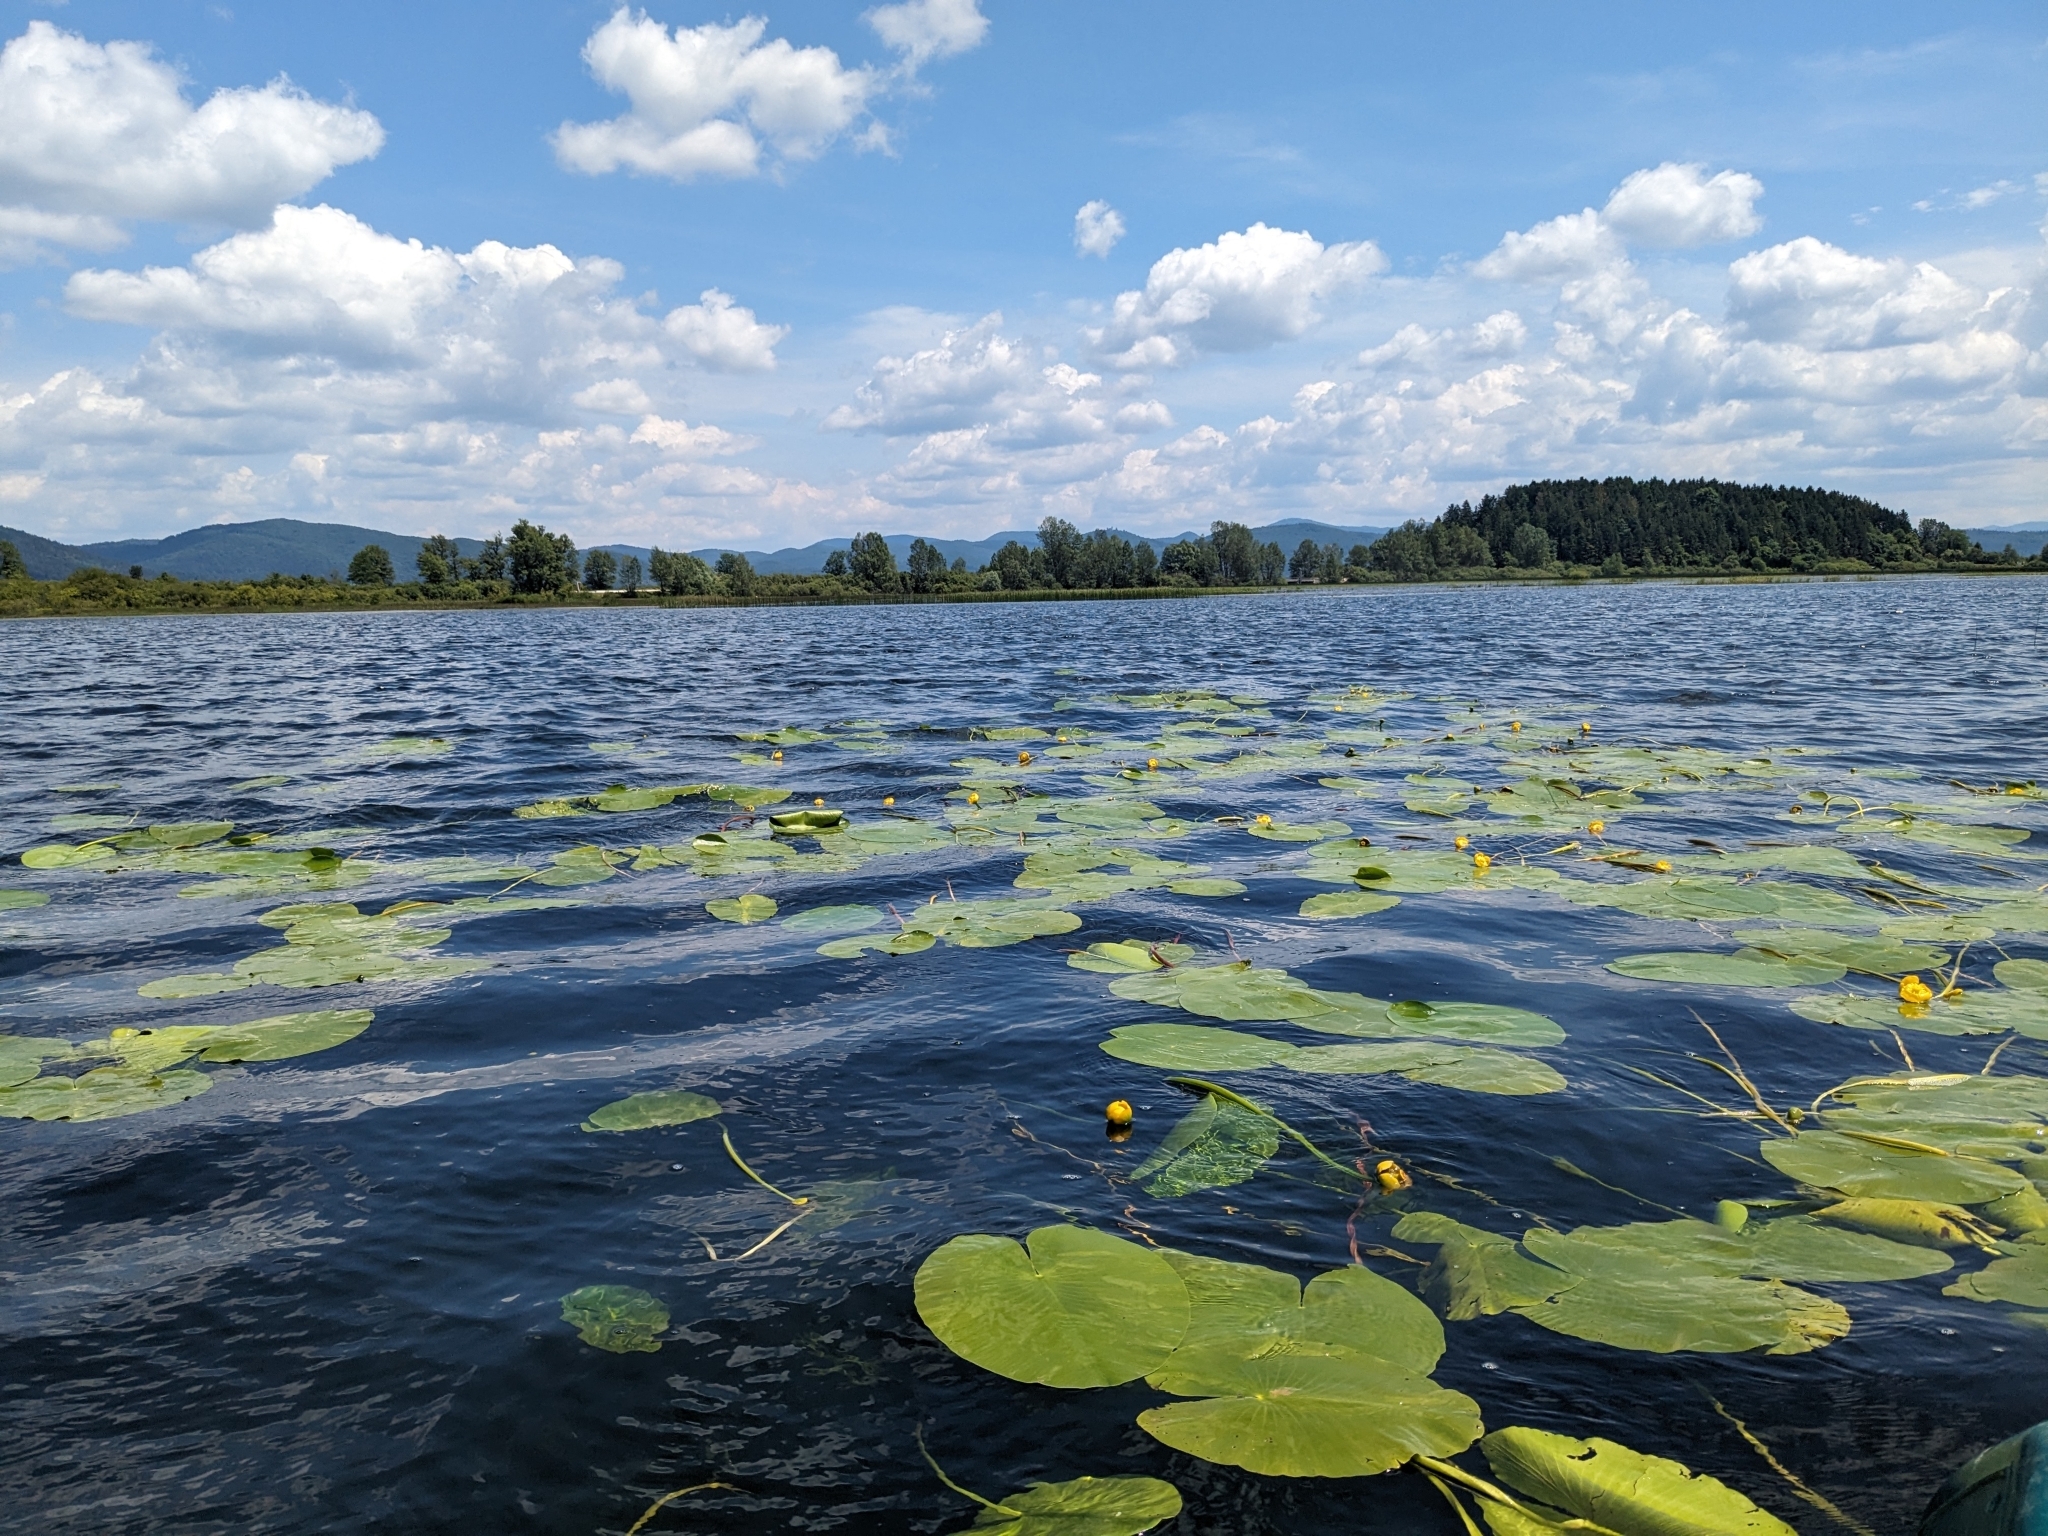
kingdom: Plantae
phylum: Tracheophyta
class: Magnoliopsida
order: Nymphaeales
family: Nymphaeaceae
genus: Nuphar
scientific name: Nuphar lutea
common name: Yellow water-lily
